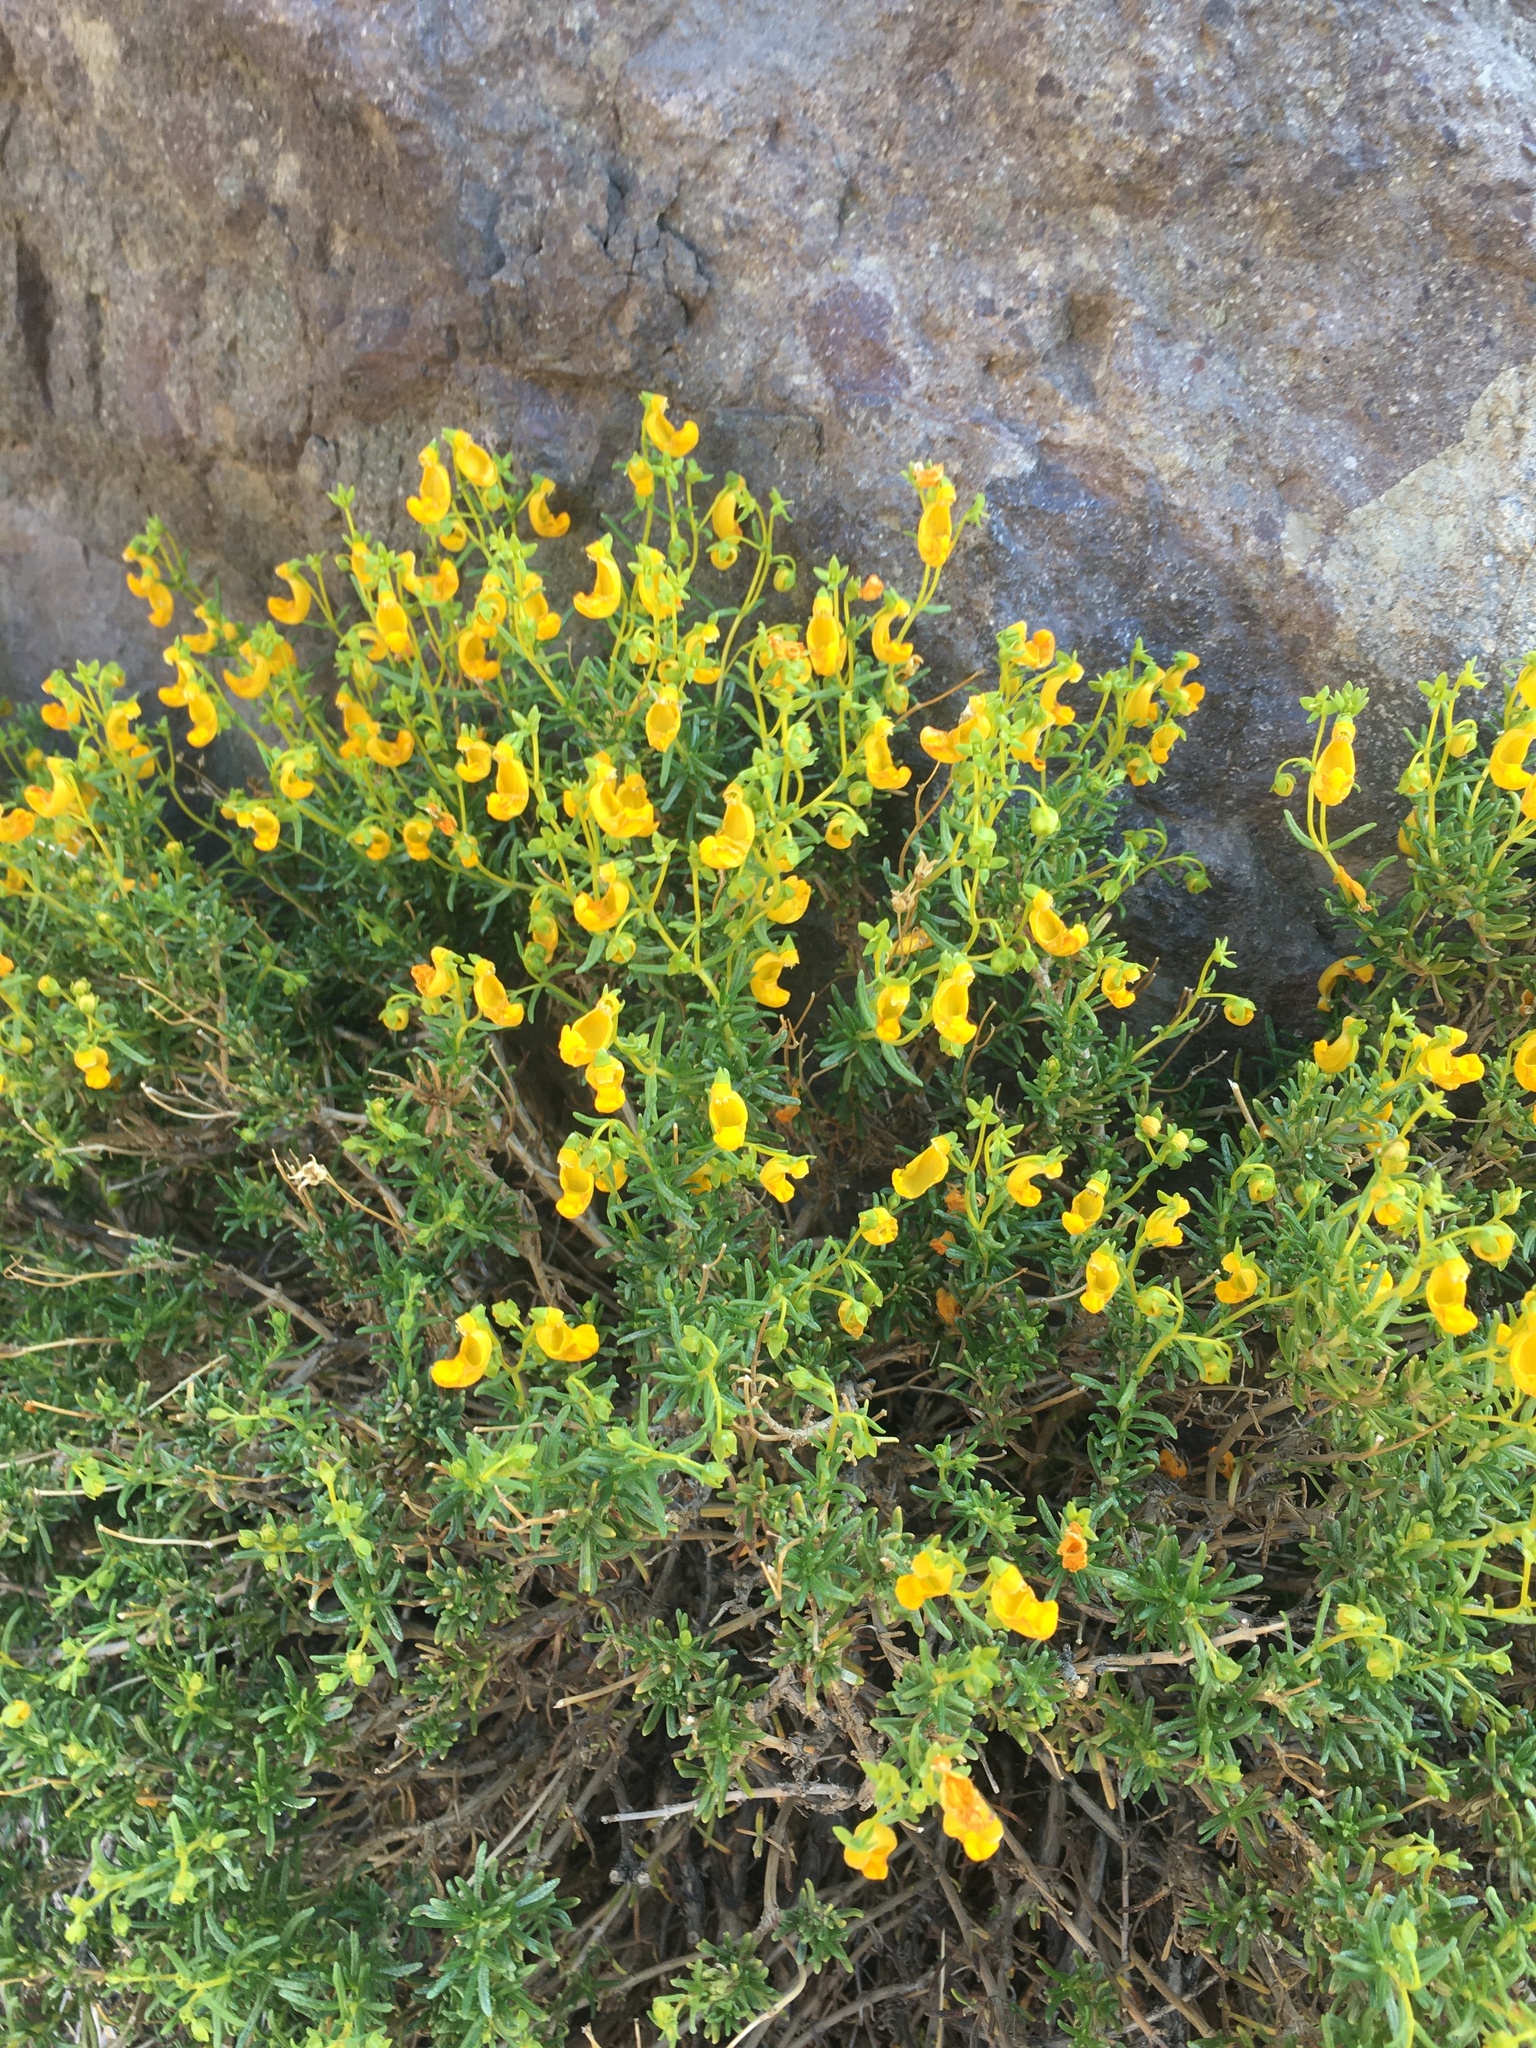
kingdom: Plantae
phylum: Tracheophyta
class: Magnoliopsida
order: Lamiales
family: Calceolariaceae
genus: Calceolaria
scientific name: Calceolaria hypericina
